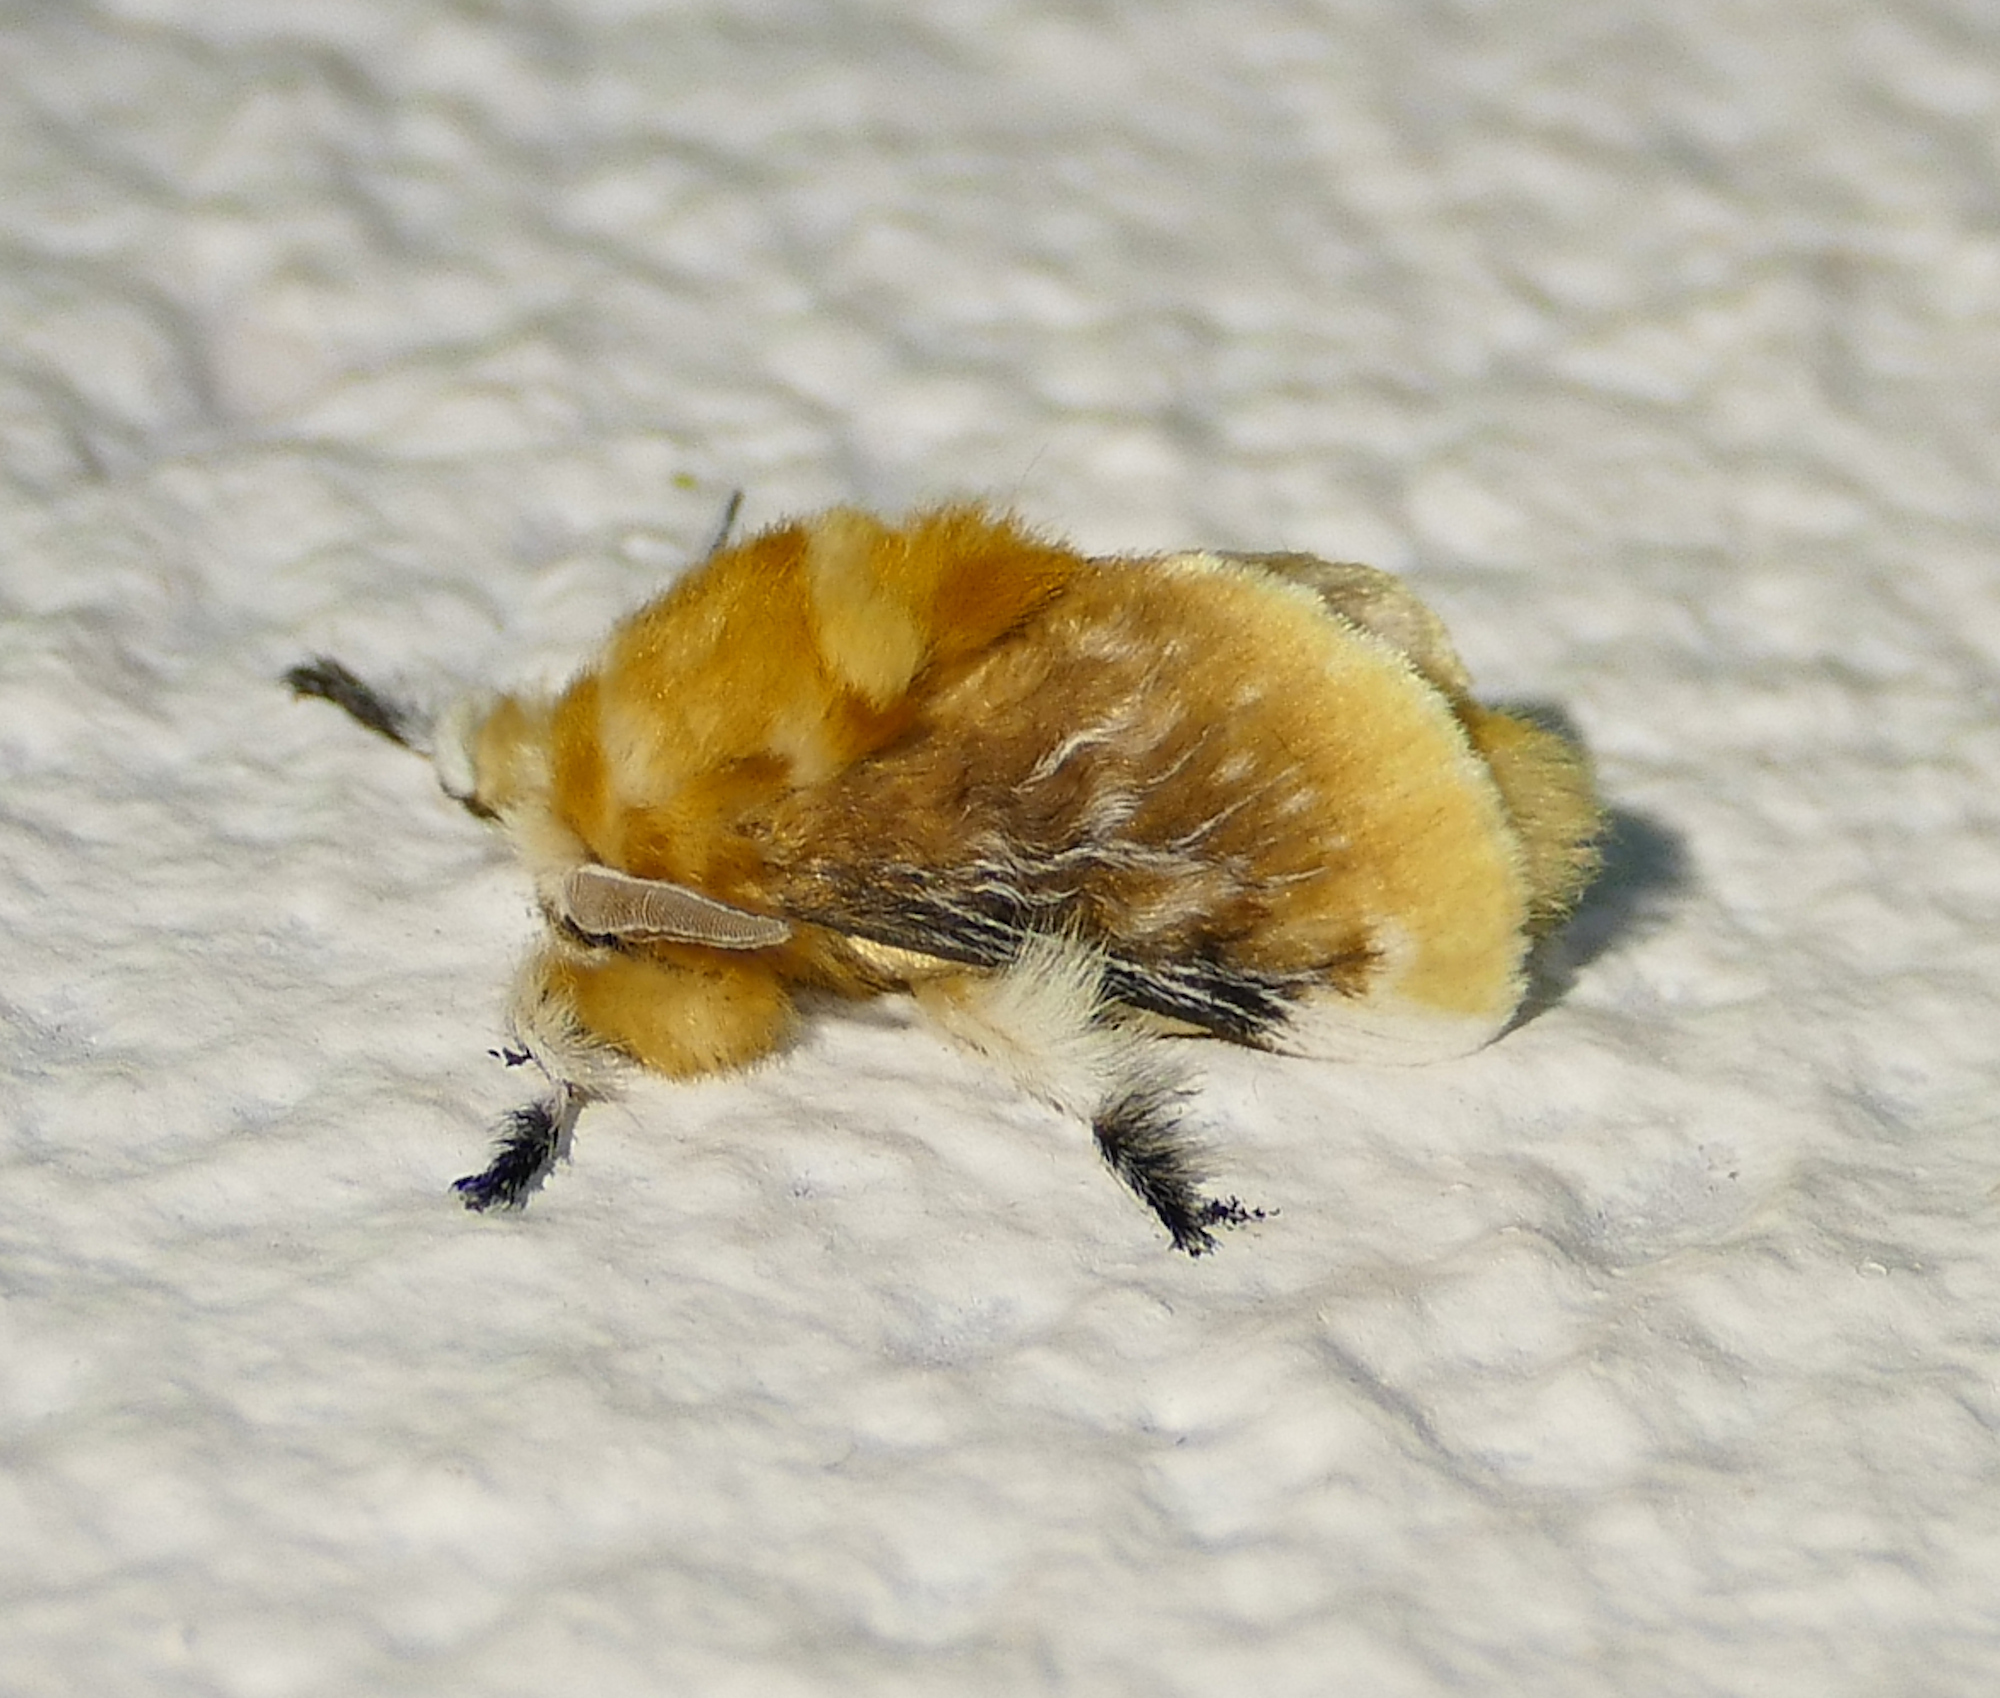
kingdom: Animalia
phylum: Arthropoda
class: Insecta
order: Lepidoptera
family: Megalopygidae
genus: Megalopyge
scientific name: Megalopyge opercularis
